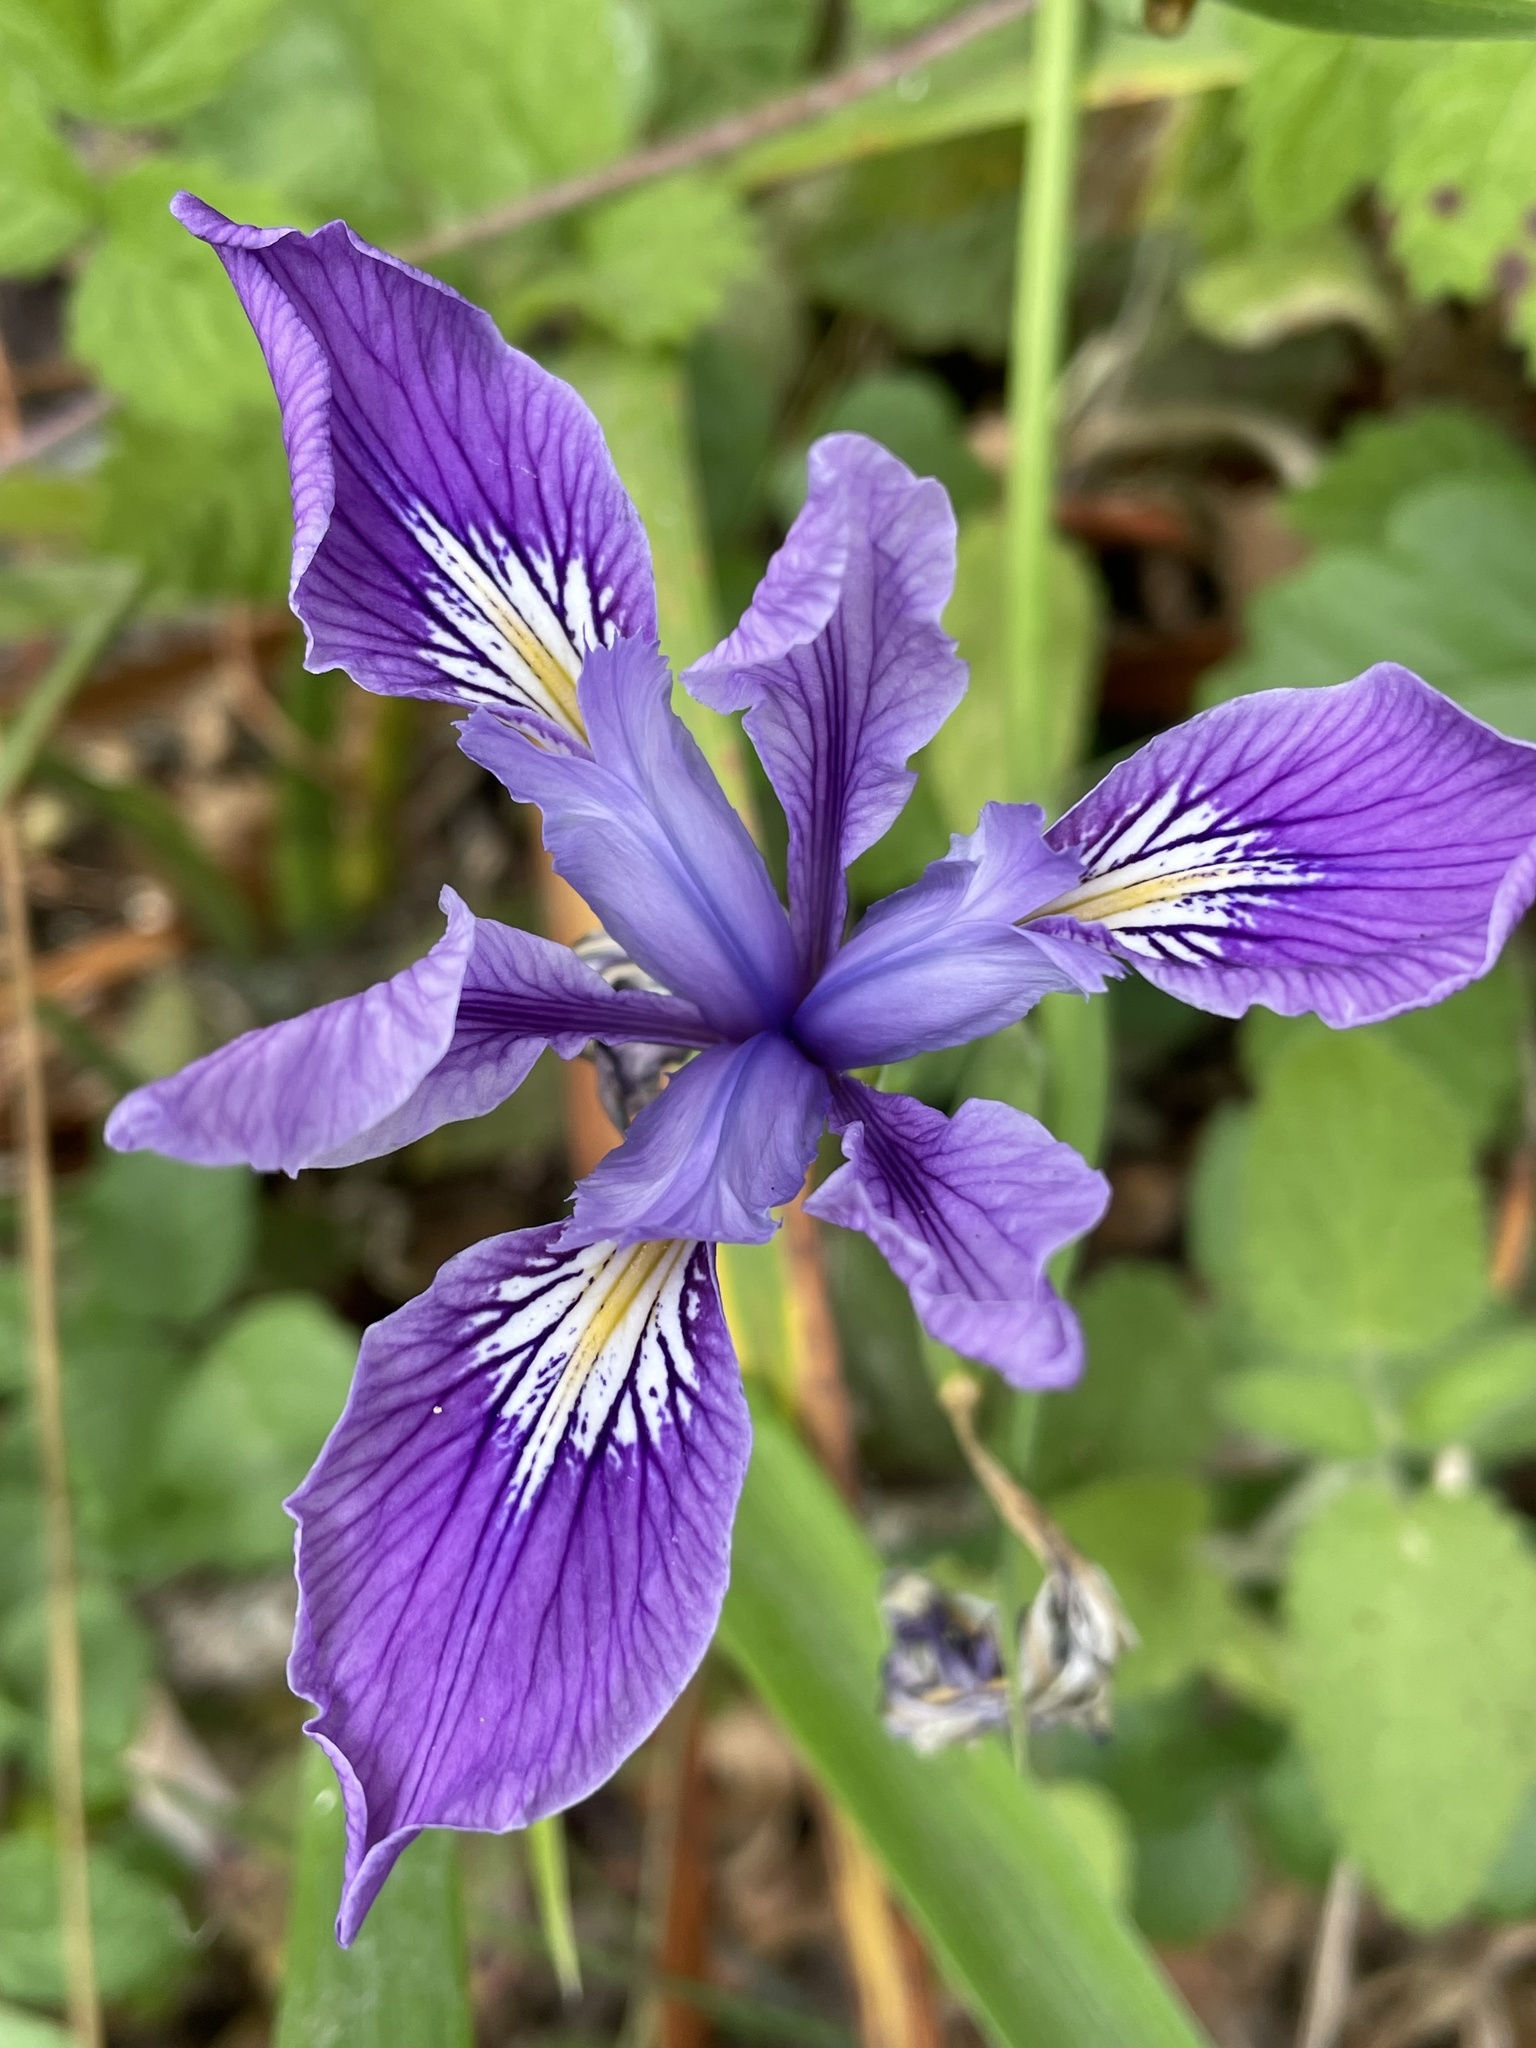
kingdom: Plantae
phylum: Tracheophyta
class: Liliopsida
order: Asparagales
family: Iridaceae
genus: Iris
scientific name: Iris douglasiana
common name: Marin iris
